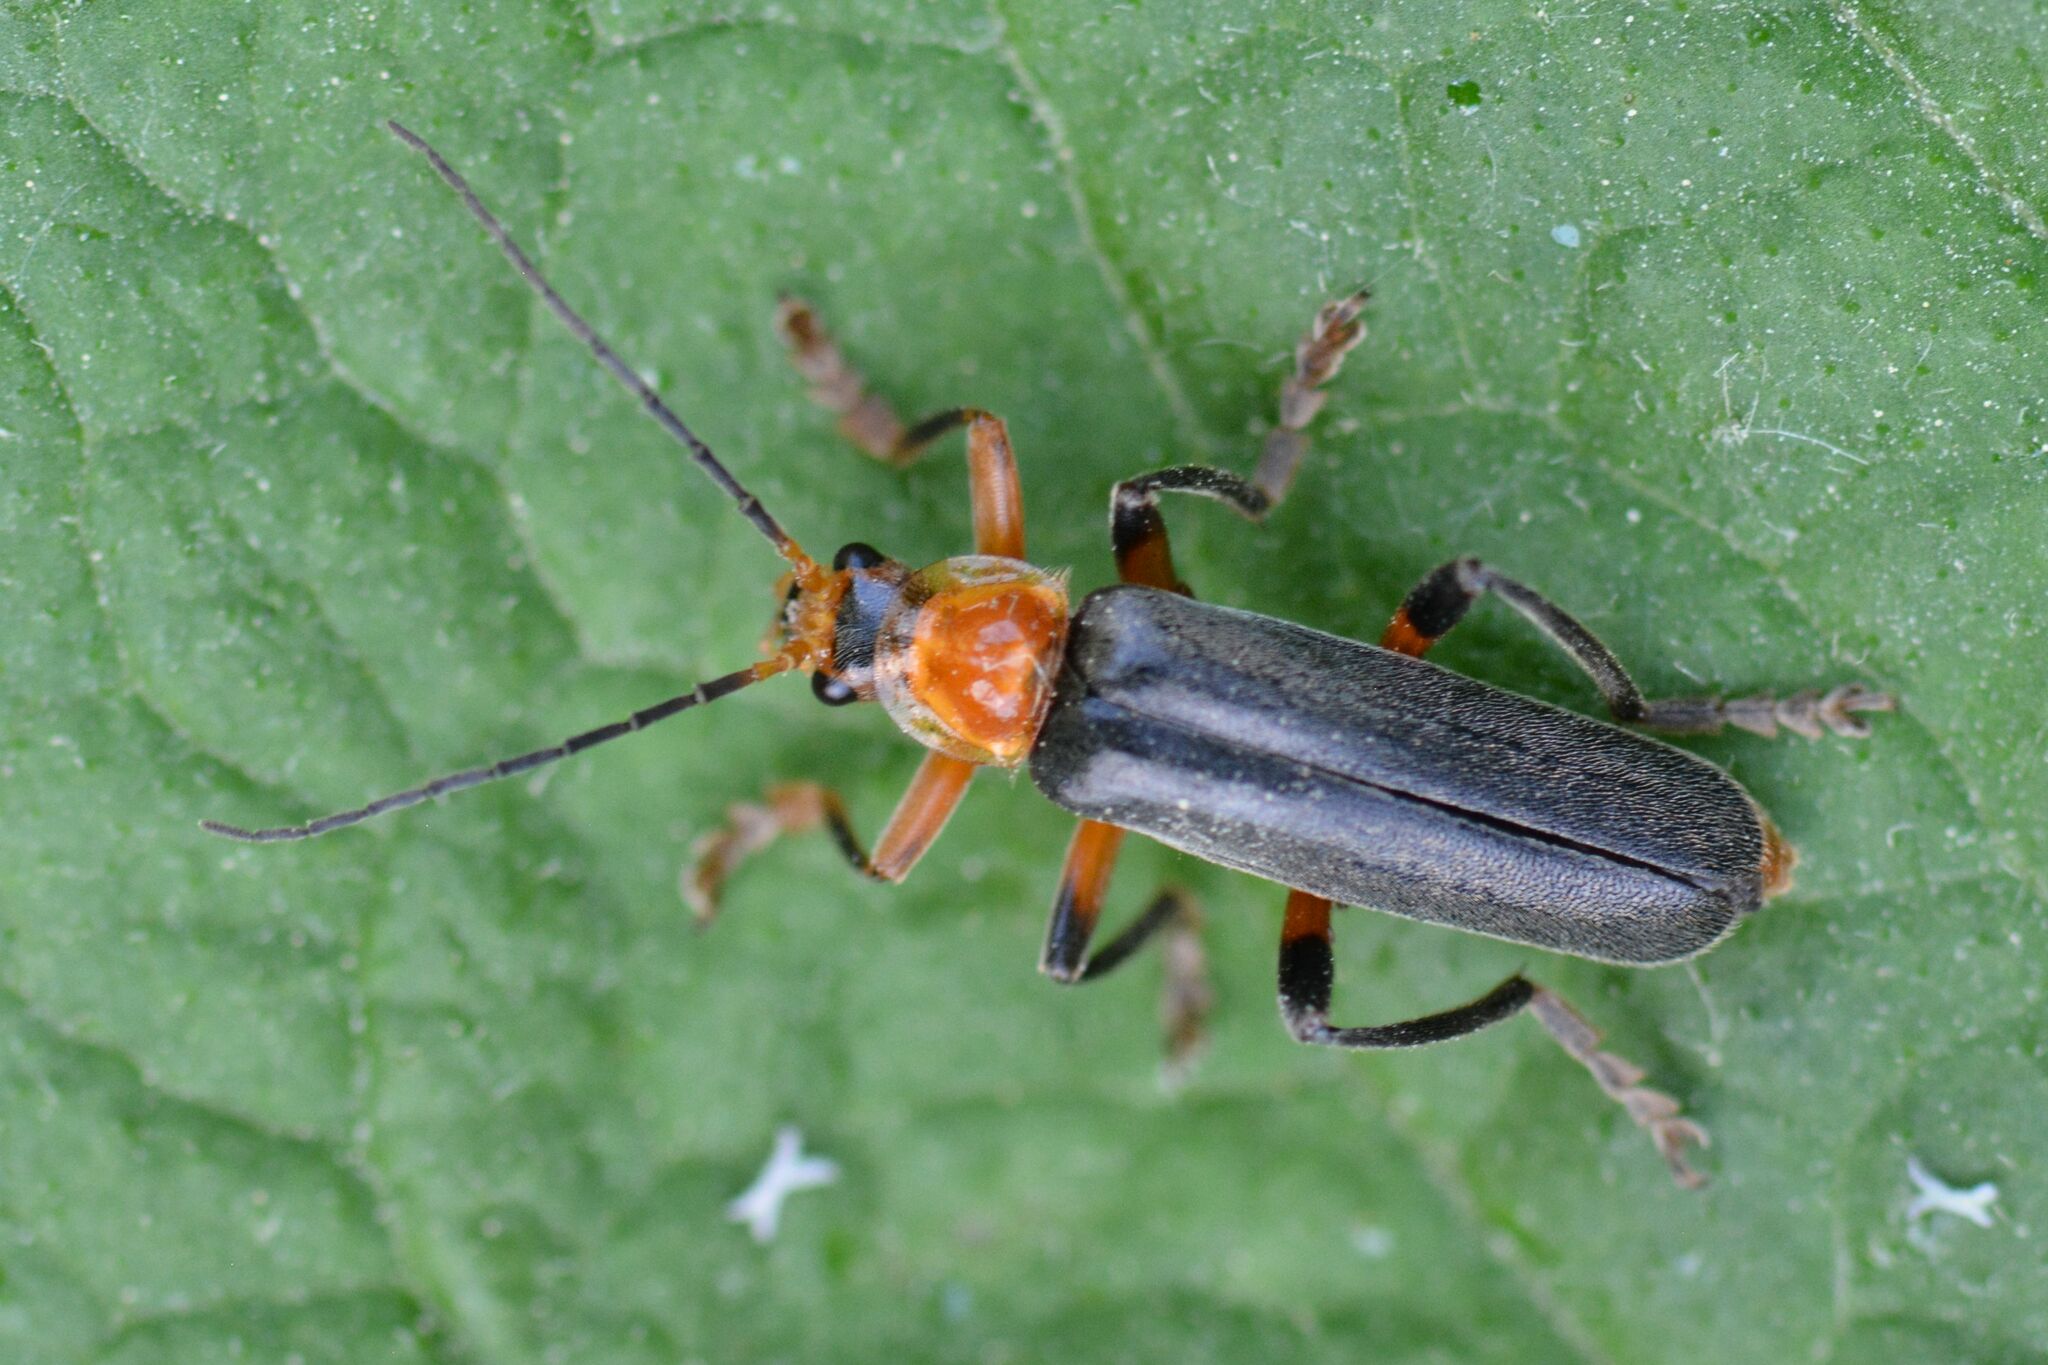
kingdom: Animalia
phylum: Arthropoda
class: Insecta
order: Coleoptera
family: Cantharidae
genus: Cantharis
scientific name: Cantharis livida
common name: Livid soldier beetle
